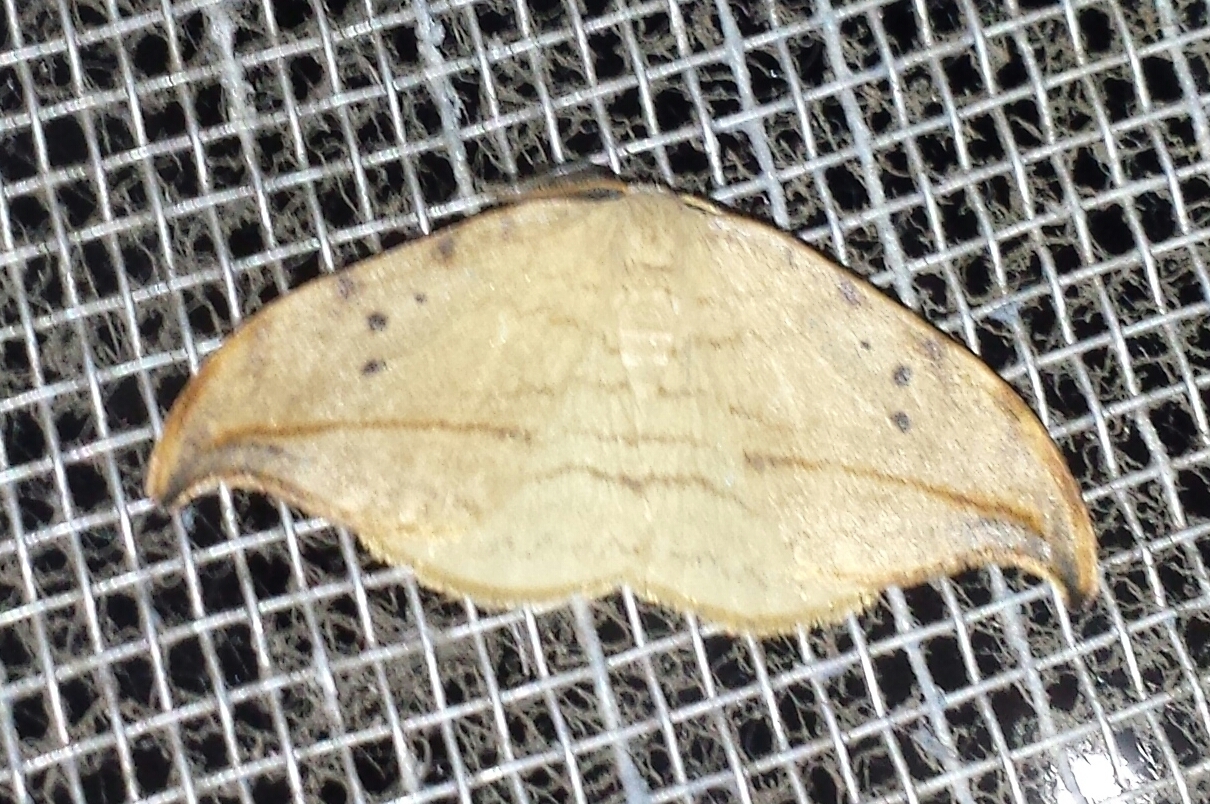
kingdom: Animalia
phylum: Arthropoda
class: Insecta
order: Lepidoptera
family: Drepanidae
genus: Drepana
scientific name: Drepana arcuata
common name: Arched hooktip moth
